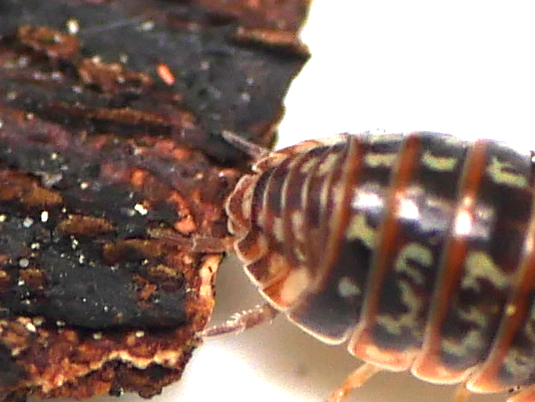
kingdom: Animalia
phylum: Arthropoda
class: Malacostraca
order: Isopoda
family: Armadillidiidae
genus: Armadillidium
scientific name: Armadillidium pulchellum
